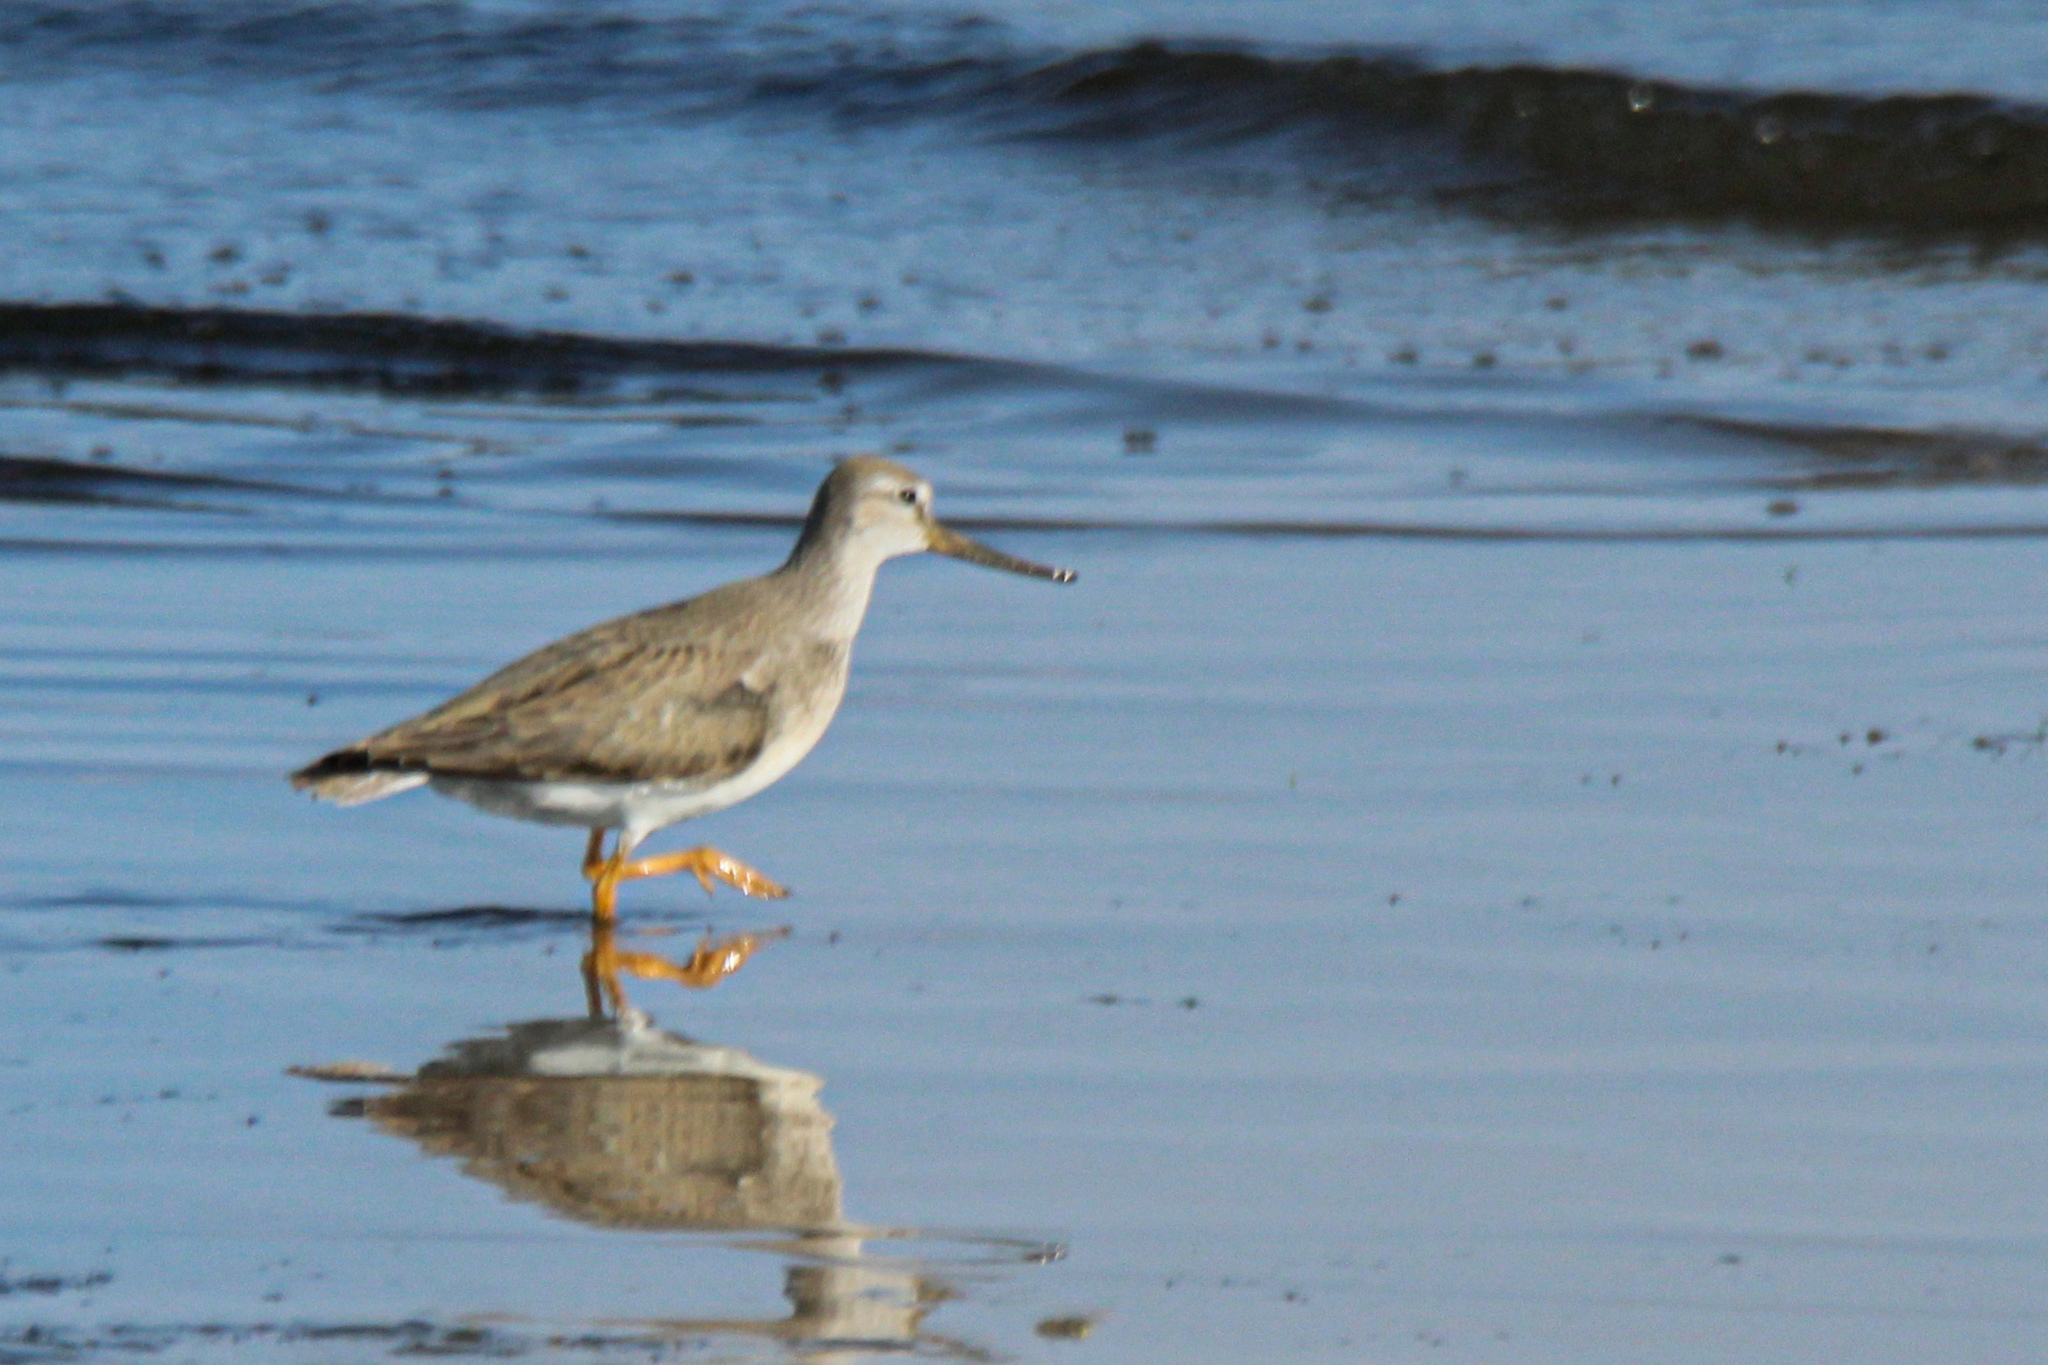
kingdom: Animalia
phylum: Chordata
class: Aves
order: Charadriiformes
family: Scolopacidae
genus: Xenus
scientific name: Xenus cinereus
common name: Terek sandpiper
